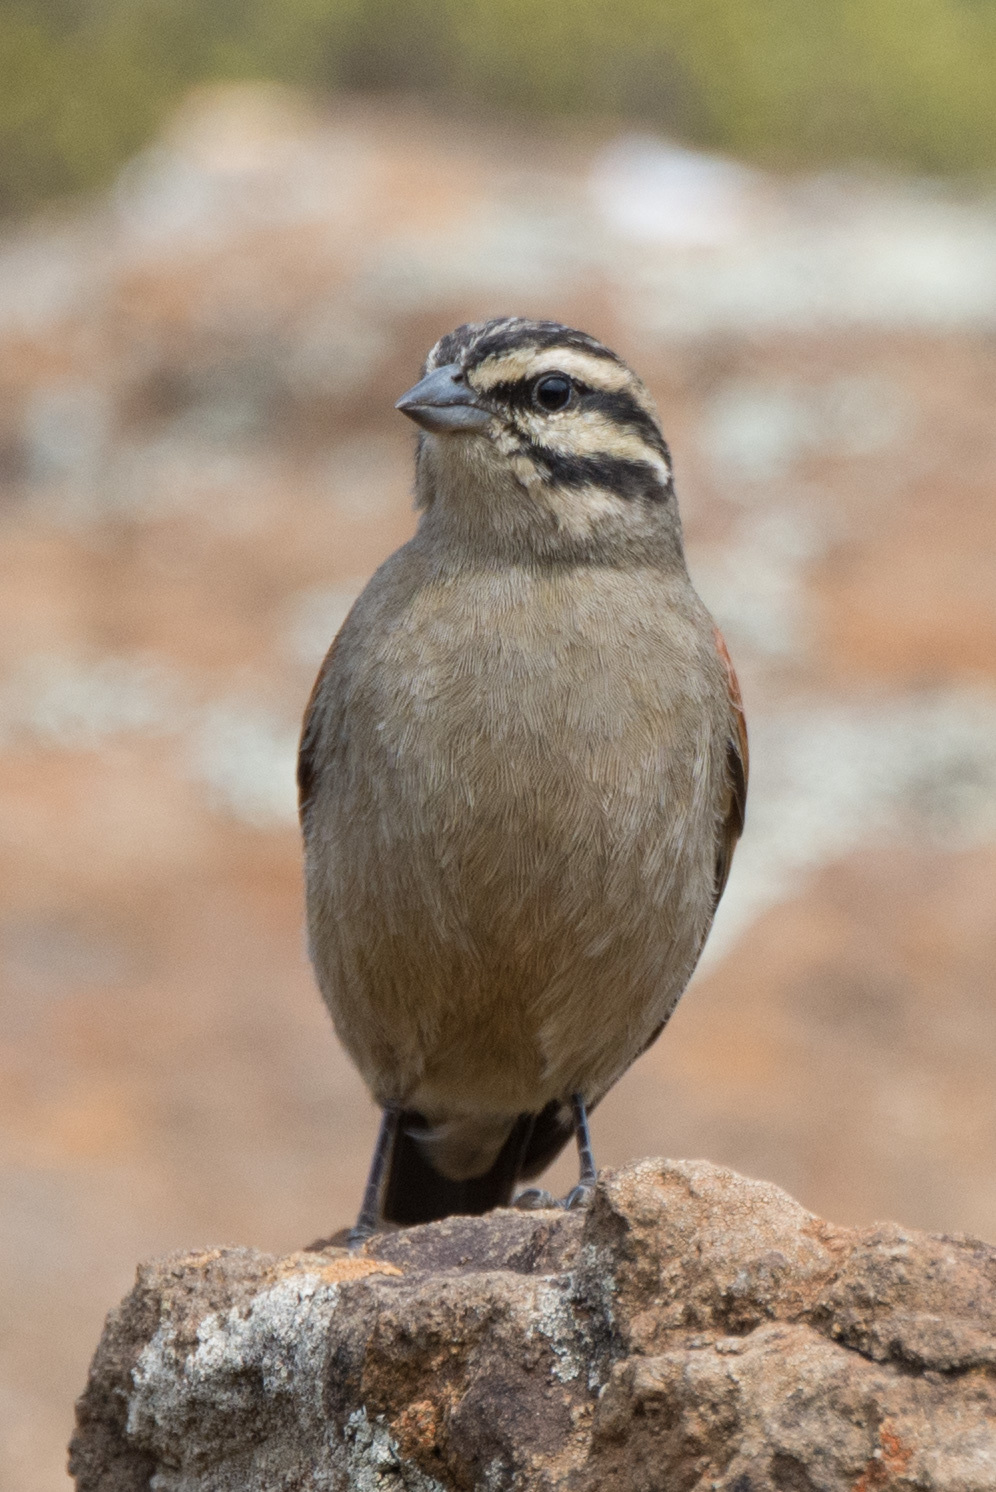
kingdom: Animalia
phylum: Chordata
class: Aves
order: Passeriformes
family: Emberizidae
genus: Emberiza
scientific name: Emberiza capensis
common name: Cape bunting
